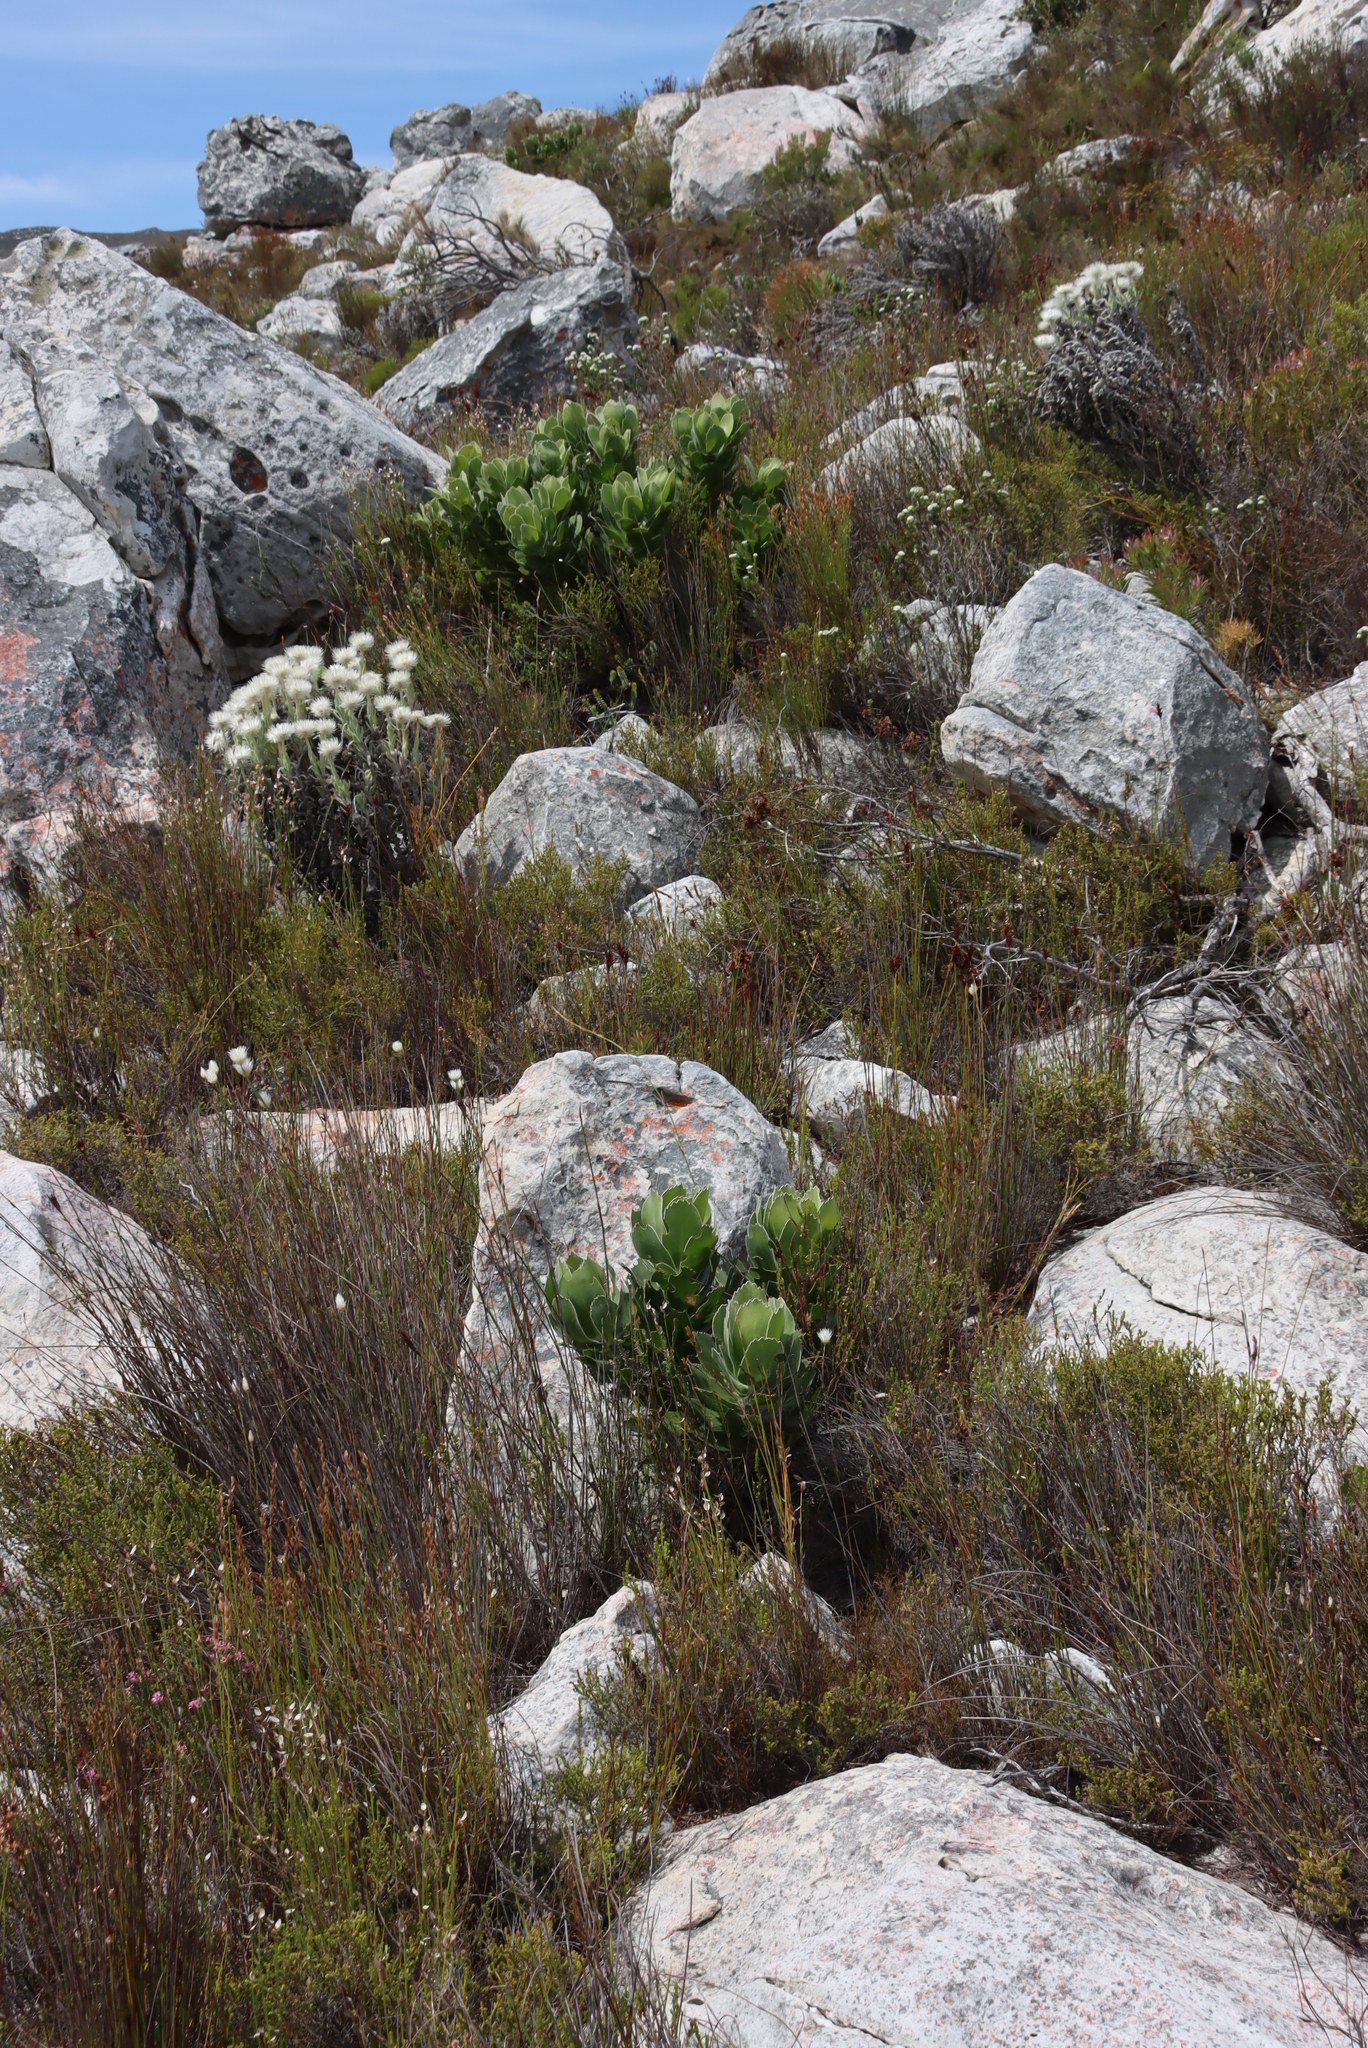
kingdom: Plantae
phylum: Tracheophyta
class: Magnoliopsida
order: Proteales
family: Proteaceae
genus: Leucospermum
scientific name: Leucospermum conocarpodendron
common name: Tree pincushion
